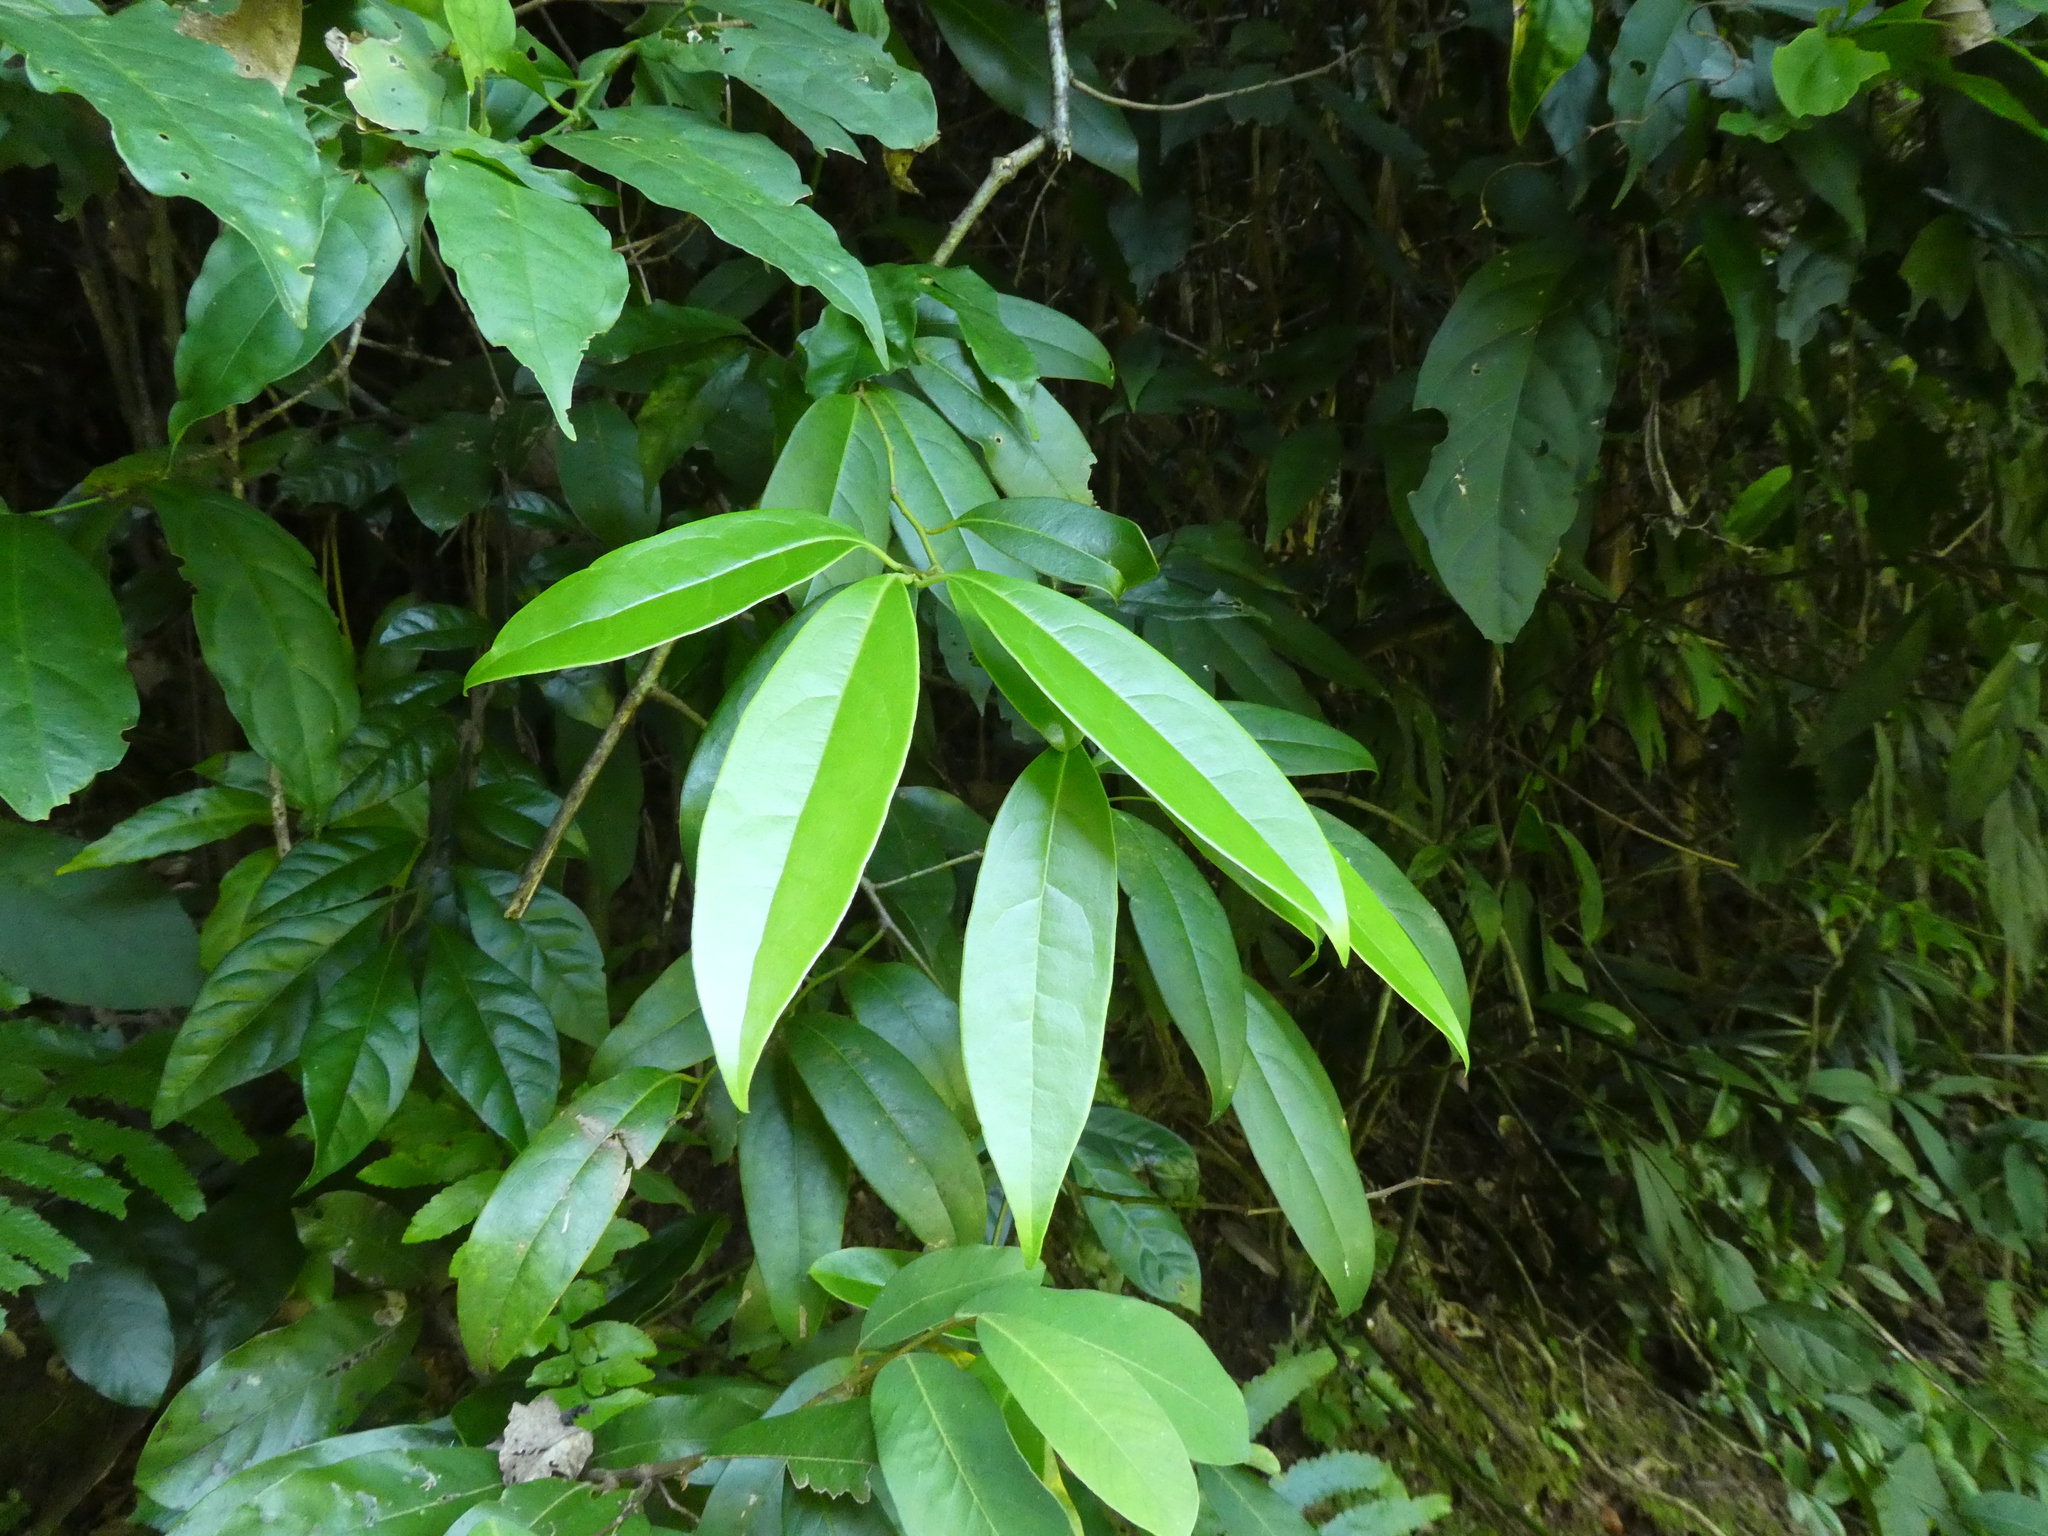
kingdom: Plantae
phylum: Tracheophyta
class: Magnoliopsida
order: Proteales
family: Sabiaceae
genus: Sabia
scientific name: Sabia limoniacea
